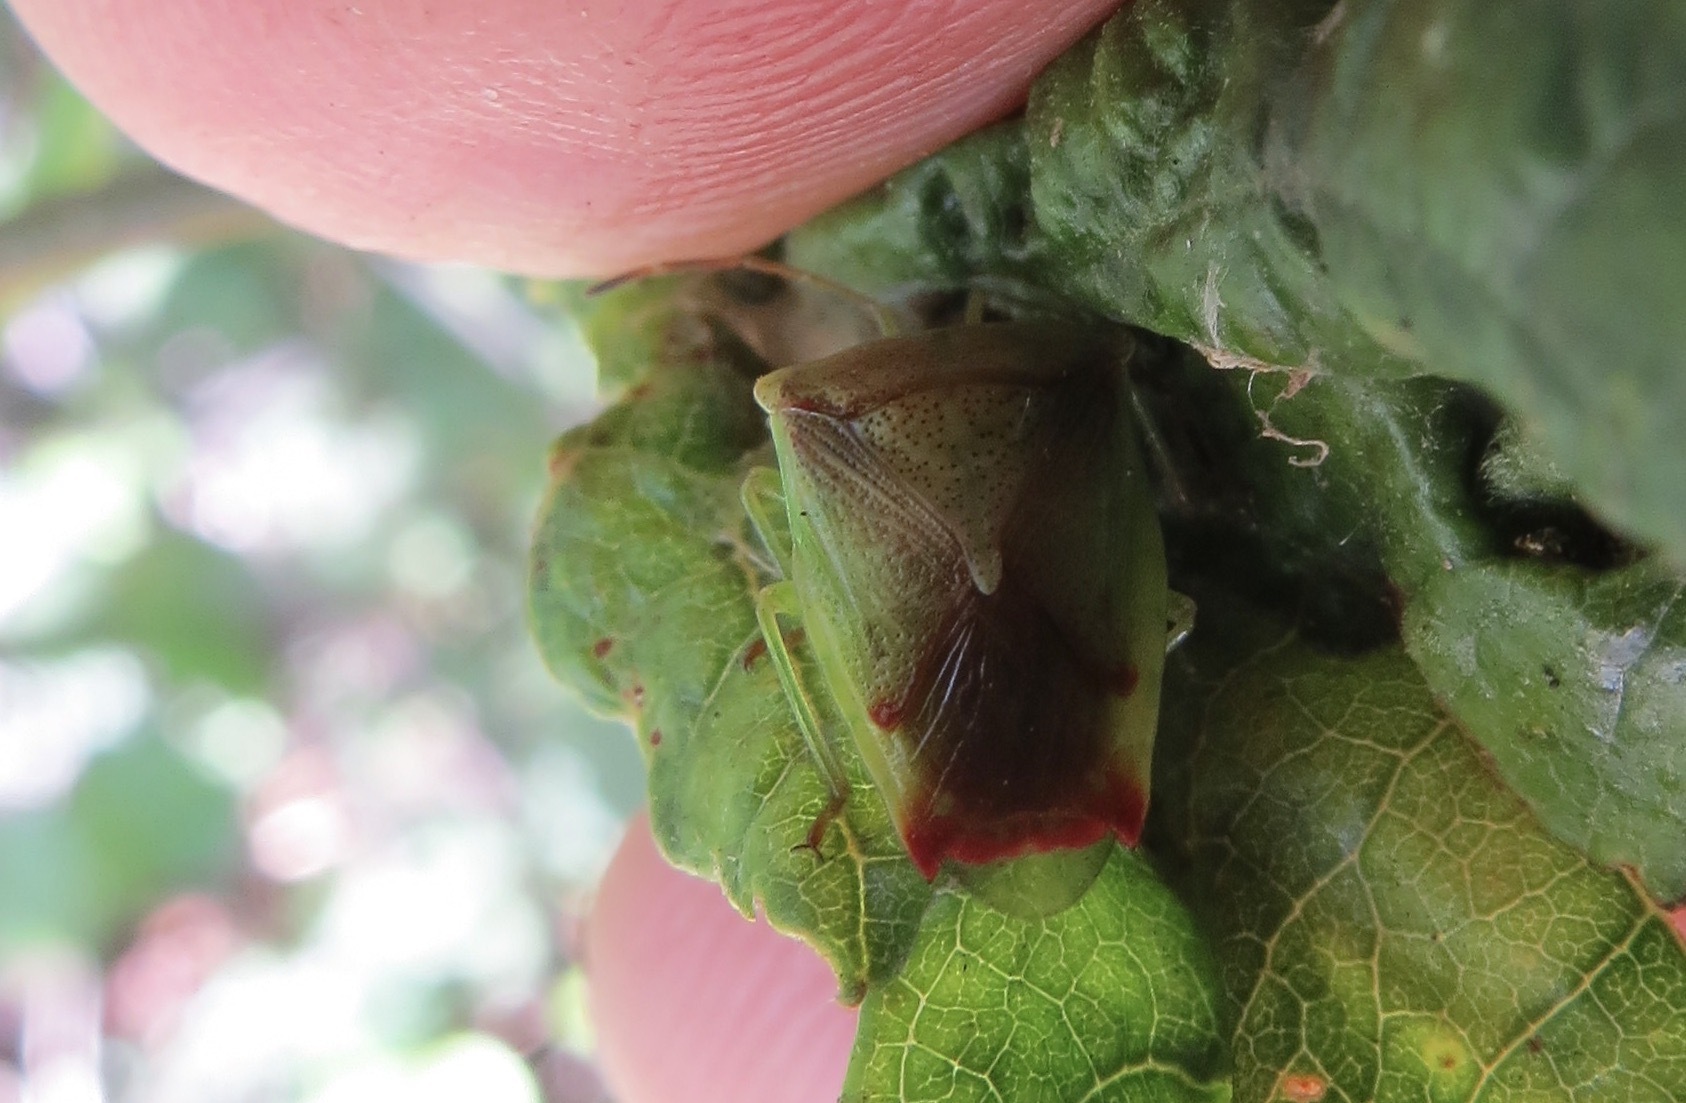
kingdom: Animalia
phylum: Arthropoda
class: Insecta
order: Hemiptera
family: Acanthosomatidae
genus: Elasmostethus
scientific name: Elasmostethus cruciatus
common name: Red-cross shield bug
